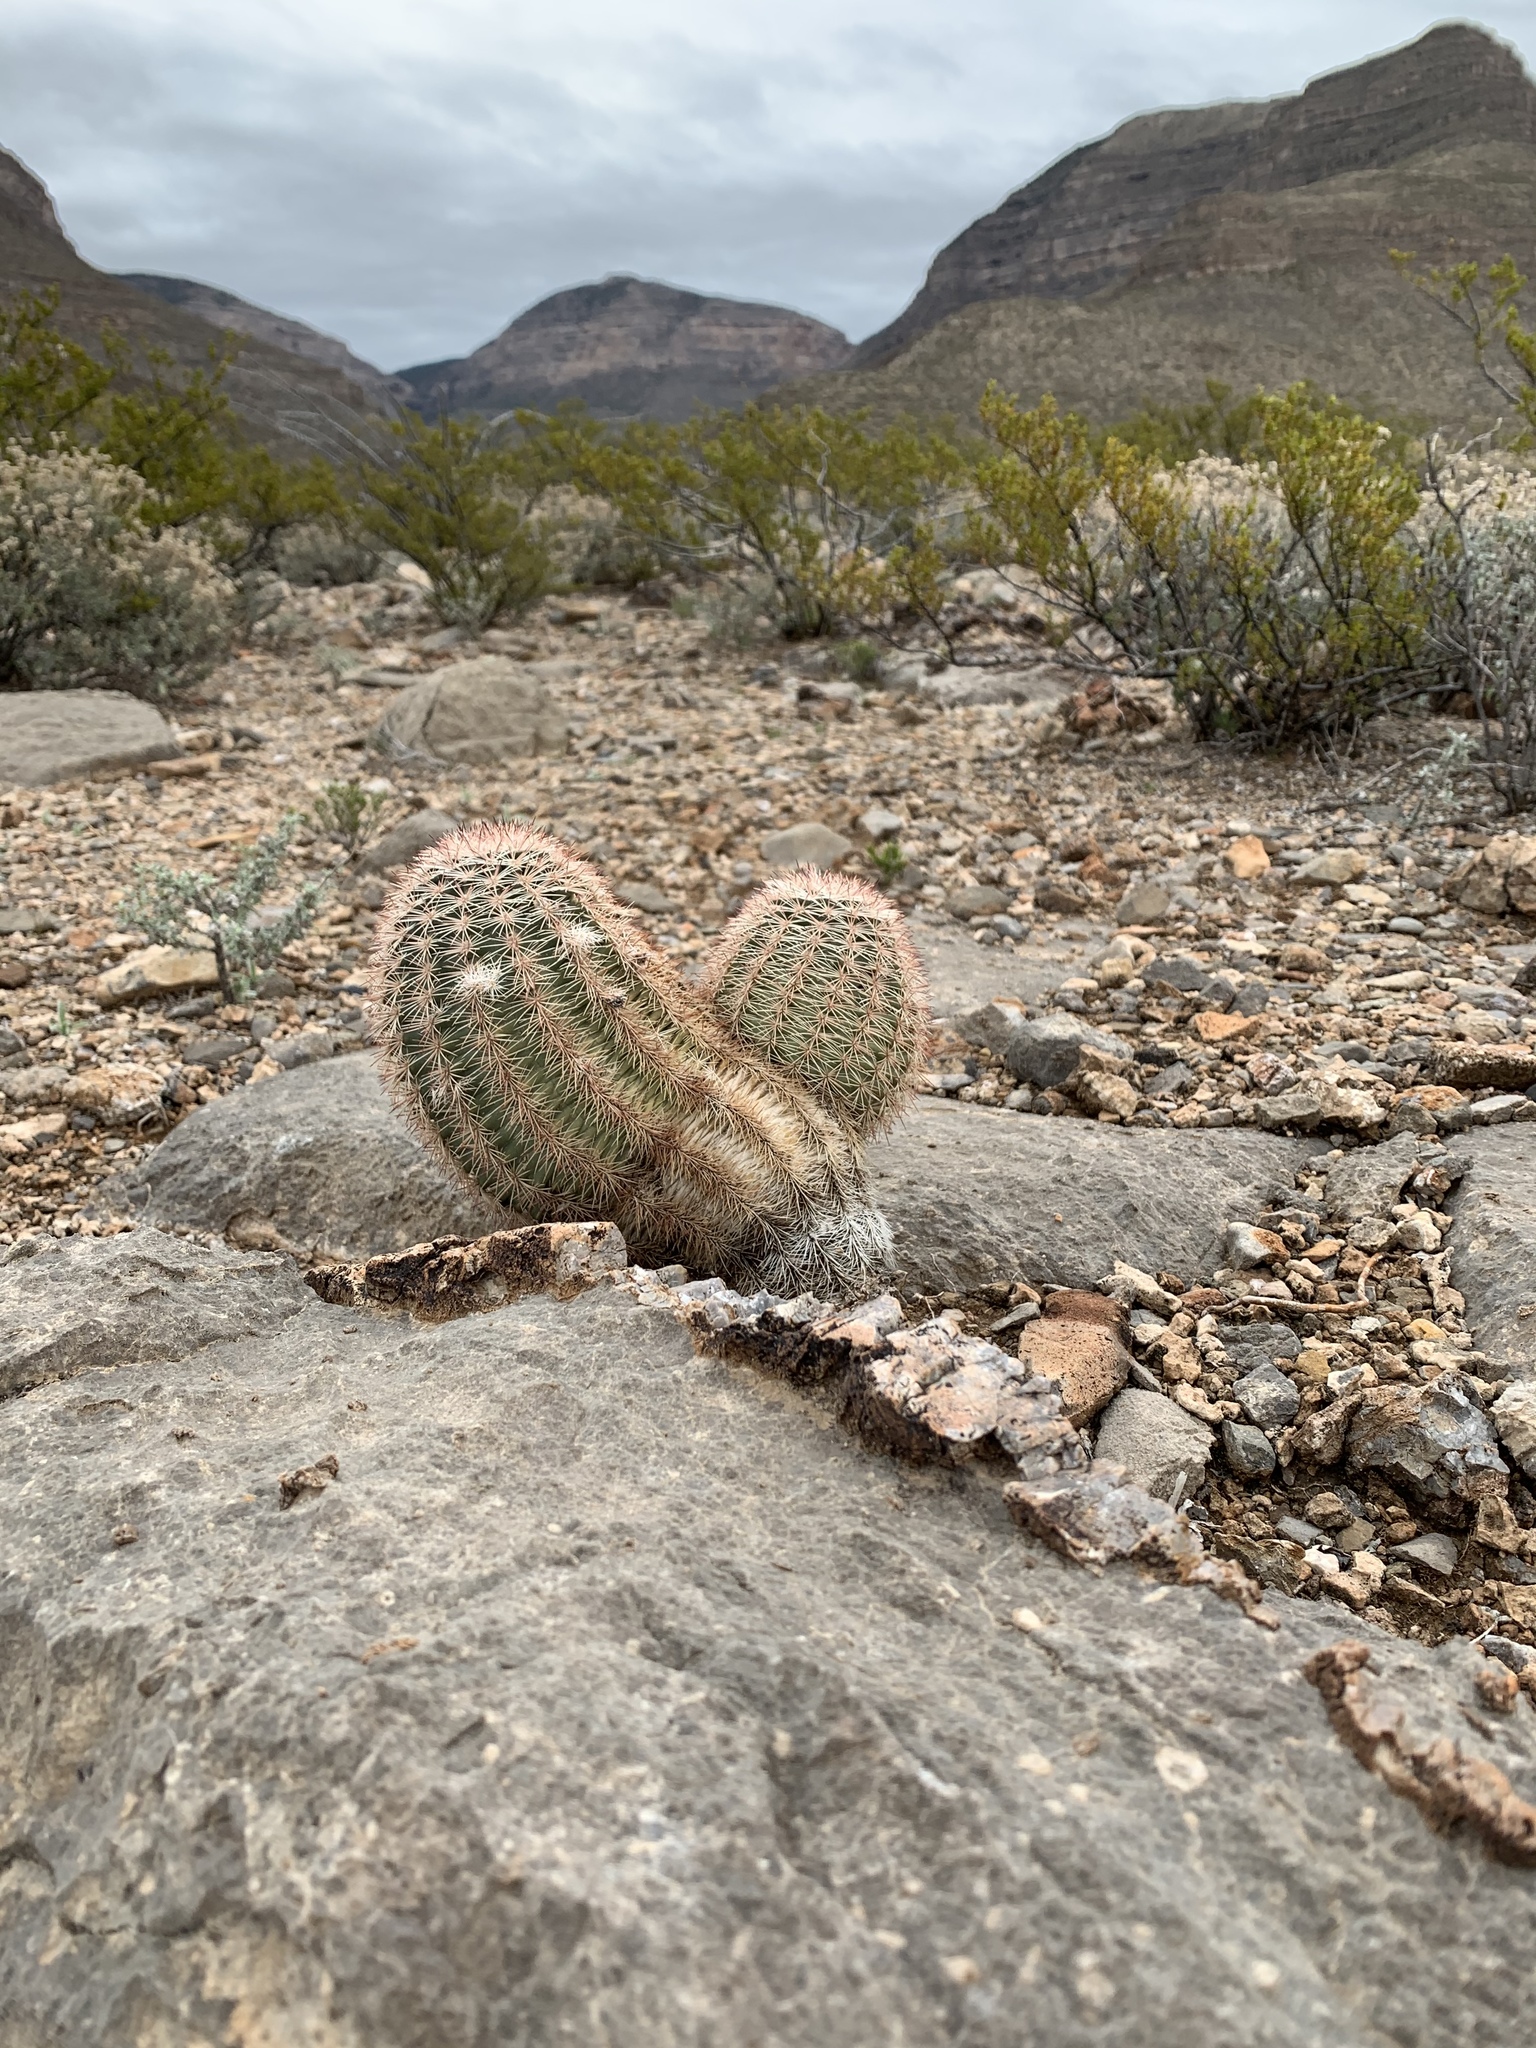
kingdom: Plantae
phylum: Tracheophyta
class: Magnoliopsida
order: Caryophyllales
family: Cactaceae
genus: Echinocereus
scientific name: Echinocereus dasyacanthus
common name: Spiny hedgehog cactus
